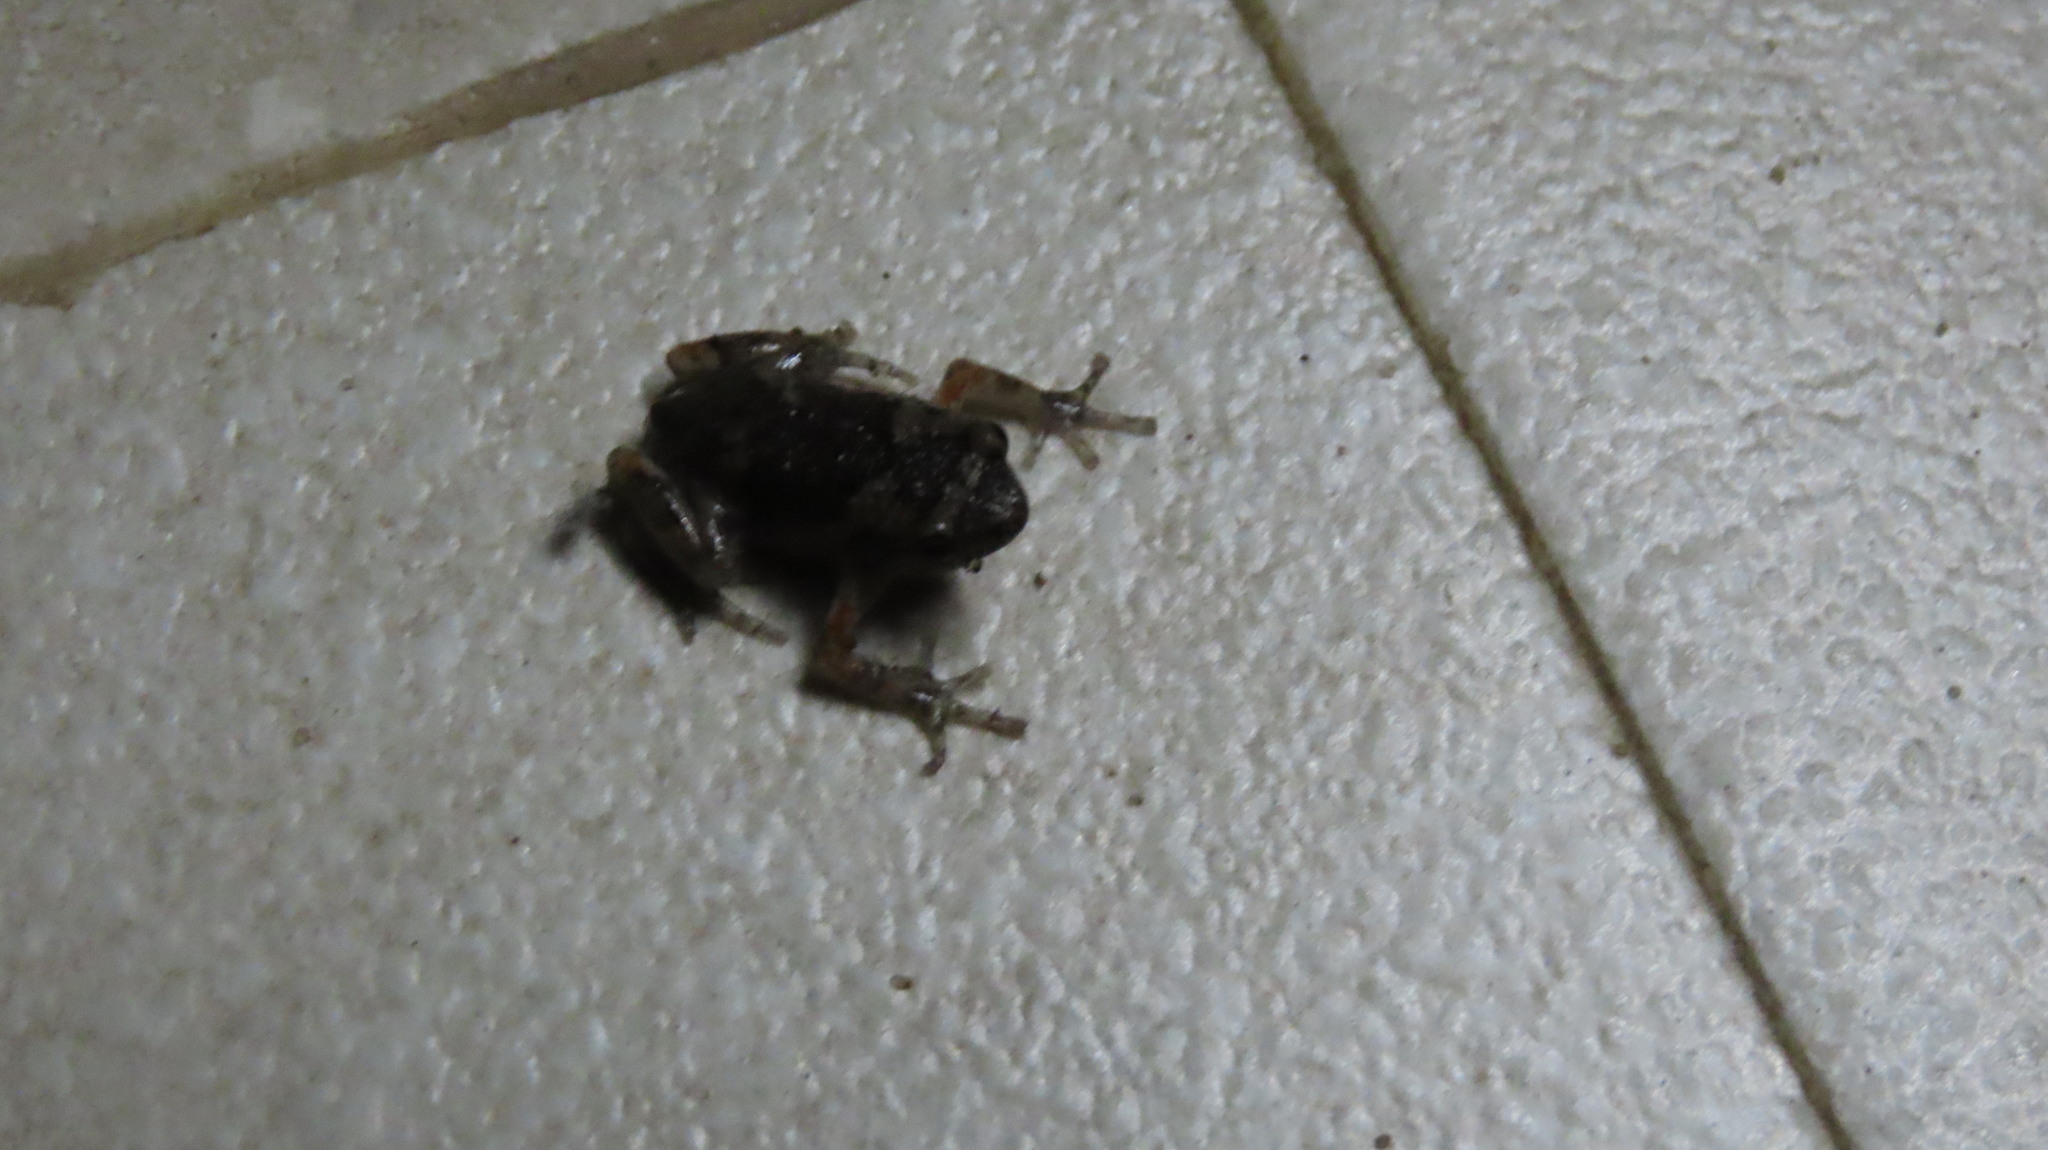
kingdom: Animalia
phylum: Chordata
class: Amphibia
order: Anura
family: Microhylidae
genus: Uperodon
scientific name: Uperodon taprobanicus
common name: Ceylon kaloula
